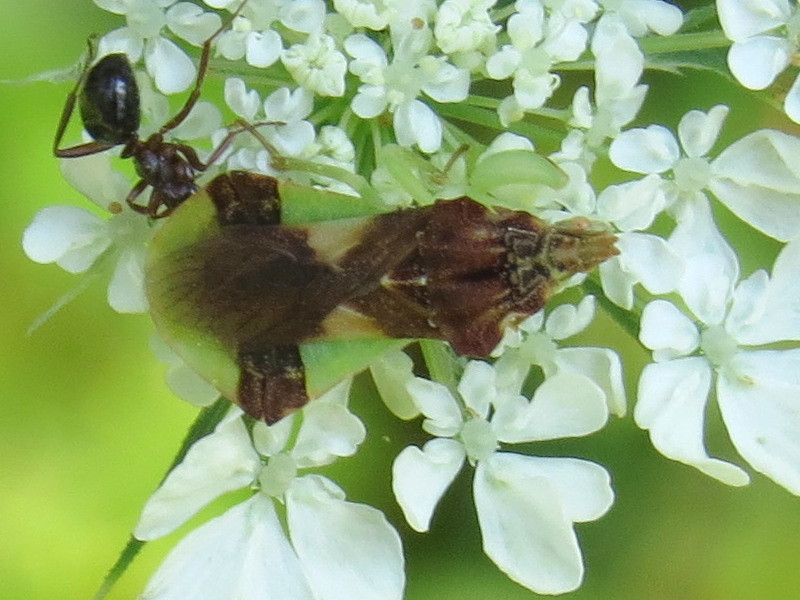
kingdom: Animalia
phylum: Arthropoda
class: Insecta
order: Hemiptera
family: Reduviidae
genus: Phymata
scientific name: Phymata pennsylvanica
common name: Pennsylvania ambush bug
